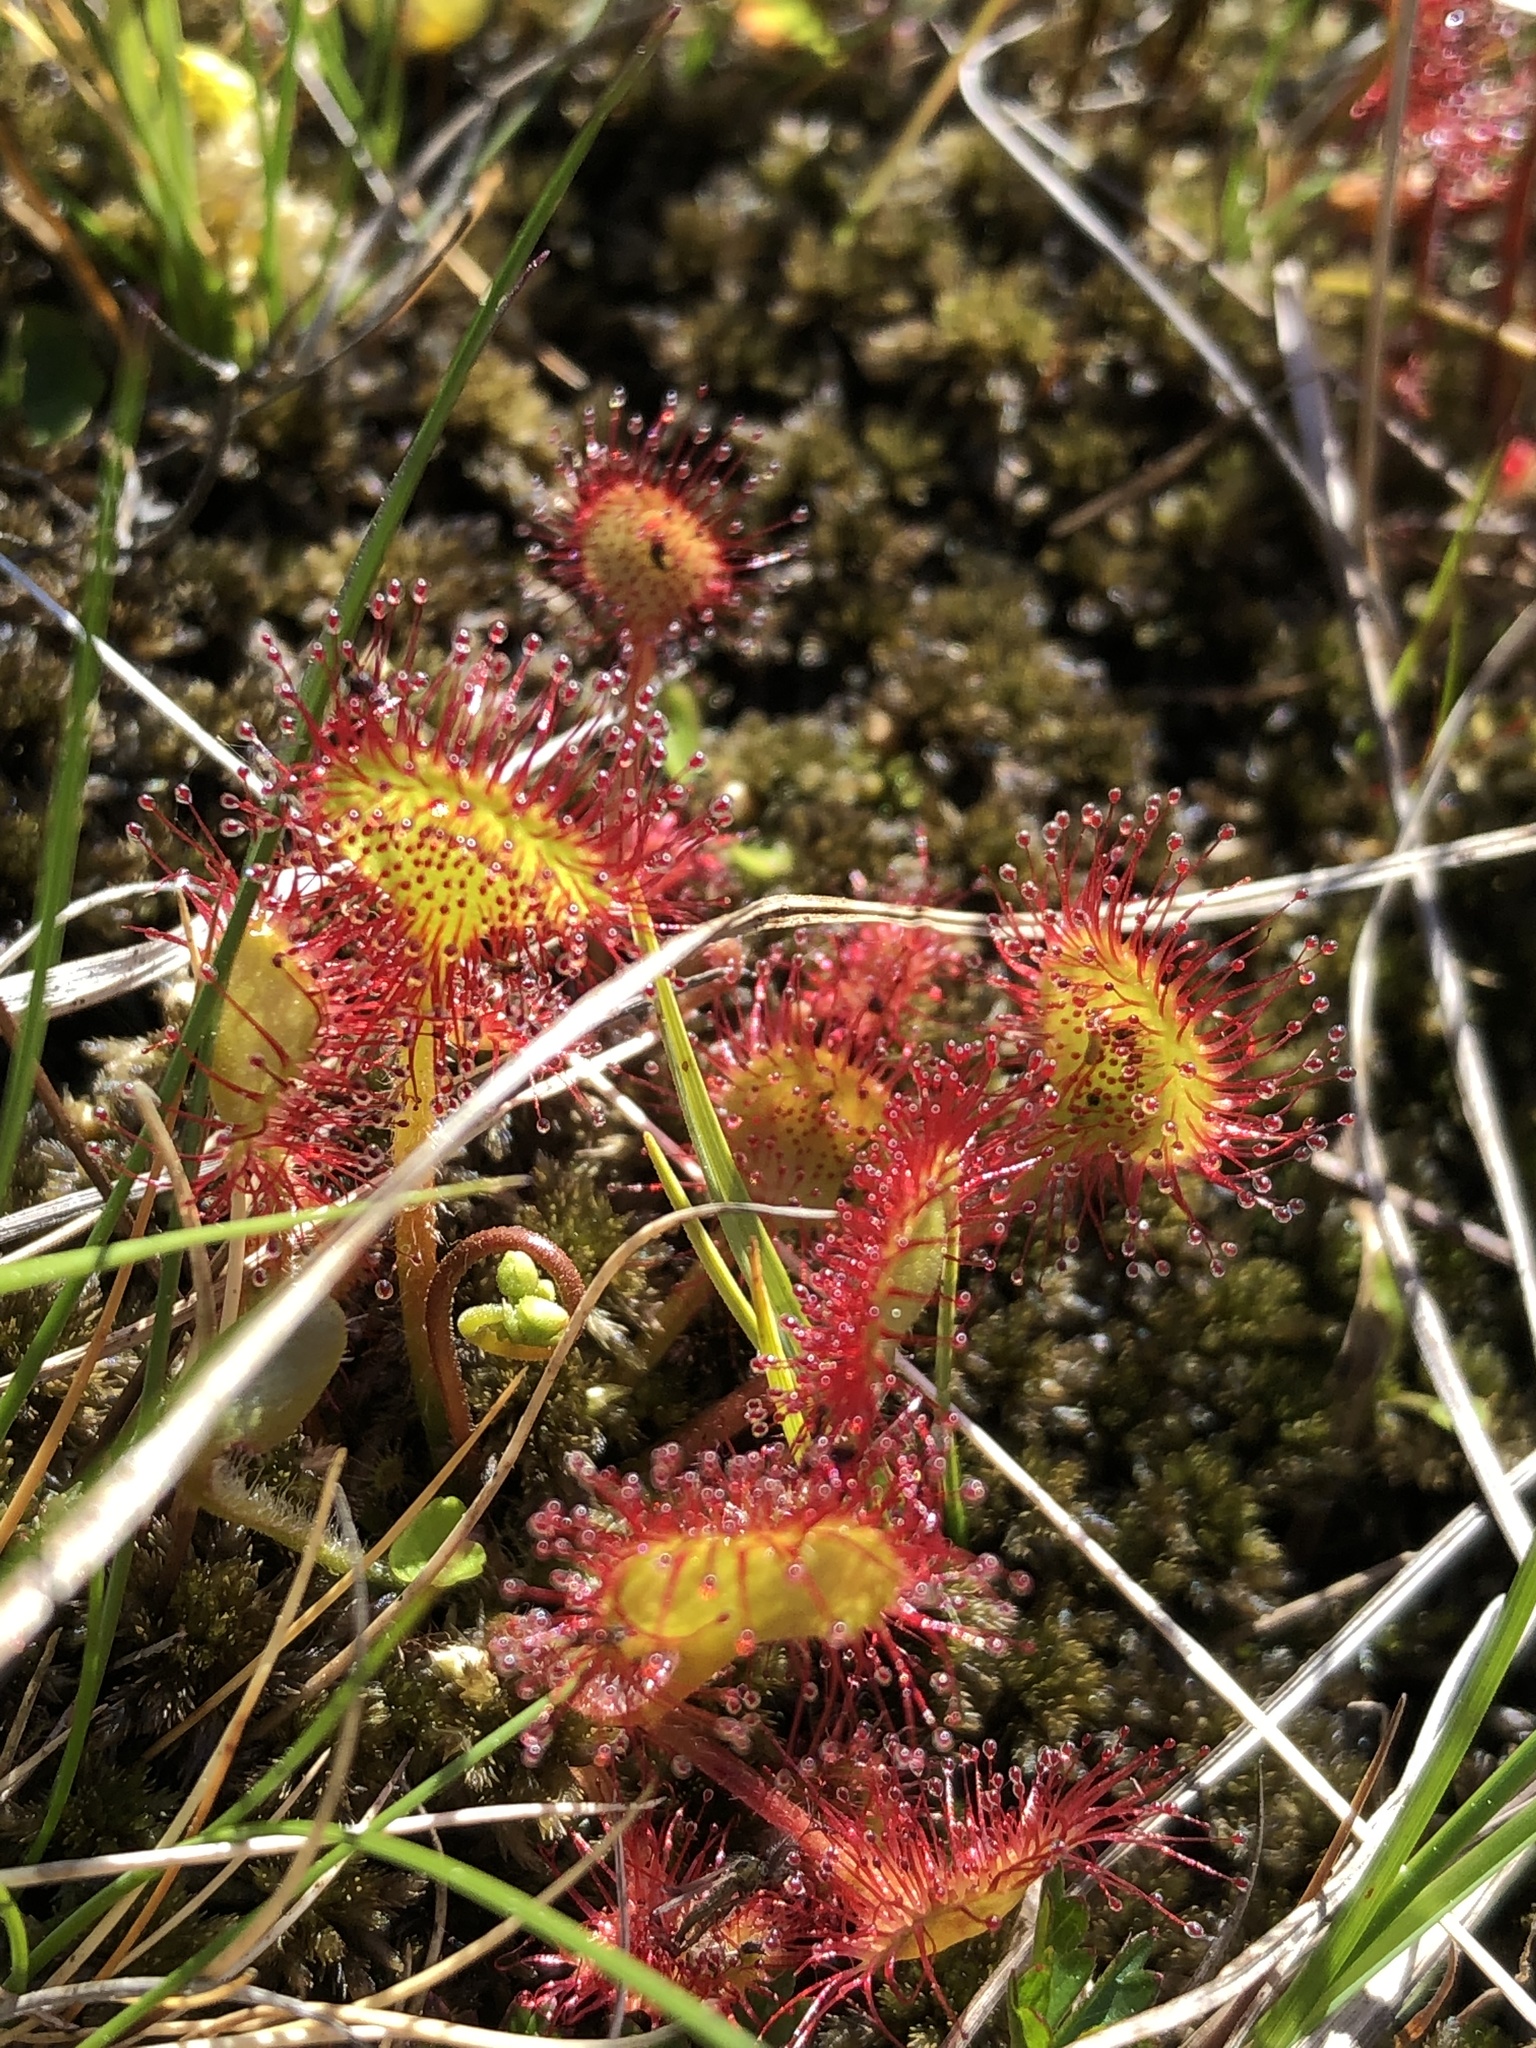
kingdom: Plantae
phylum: Tracheophyta
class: Magnoliopsida
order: Caryophyllales
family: Droseraceae
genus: Drosera
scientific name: Drosera rotundifolia
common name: Round-leaved sundew
